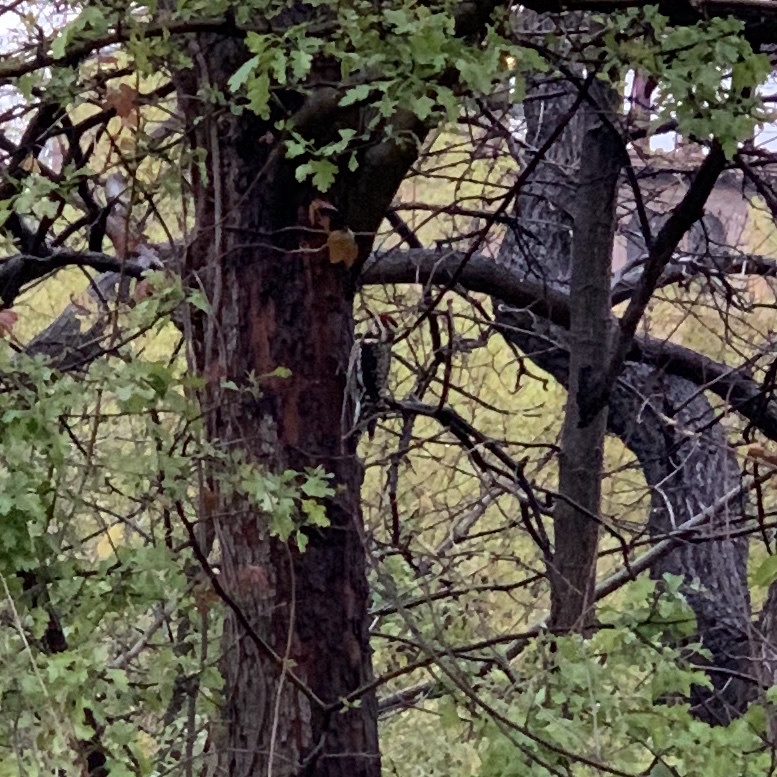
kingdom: Animalia
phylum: Chordata
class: Aves
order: Piciformes
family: Picidae
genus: Sphyrapicus
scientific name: Sphyrapicus varius
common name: Yellow-bellied sapsucker
